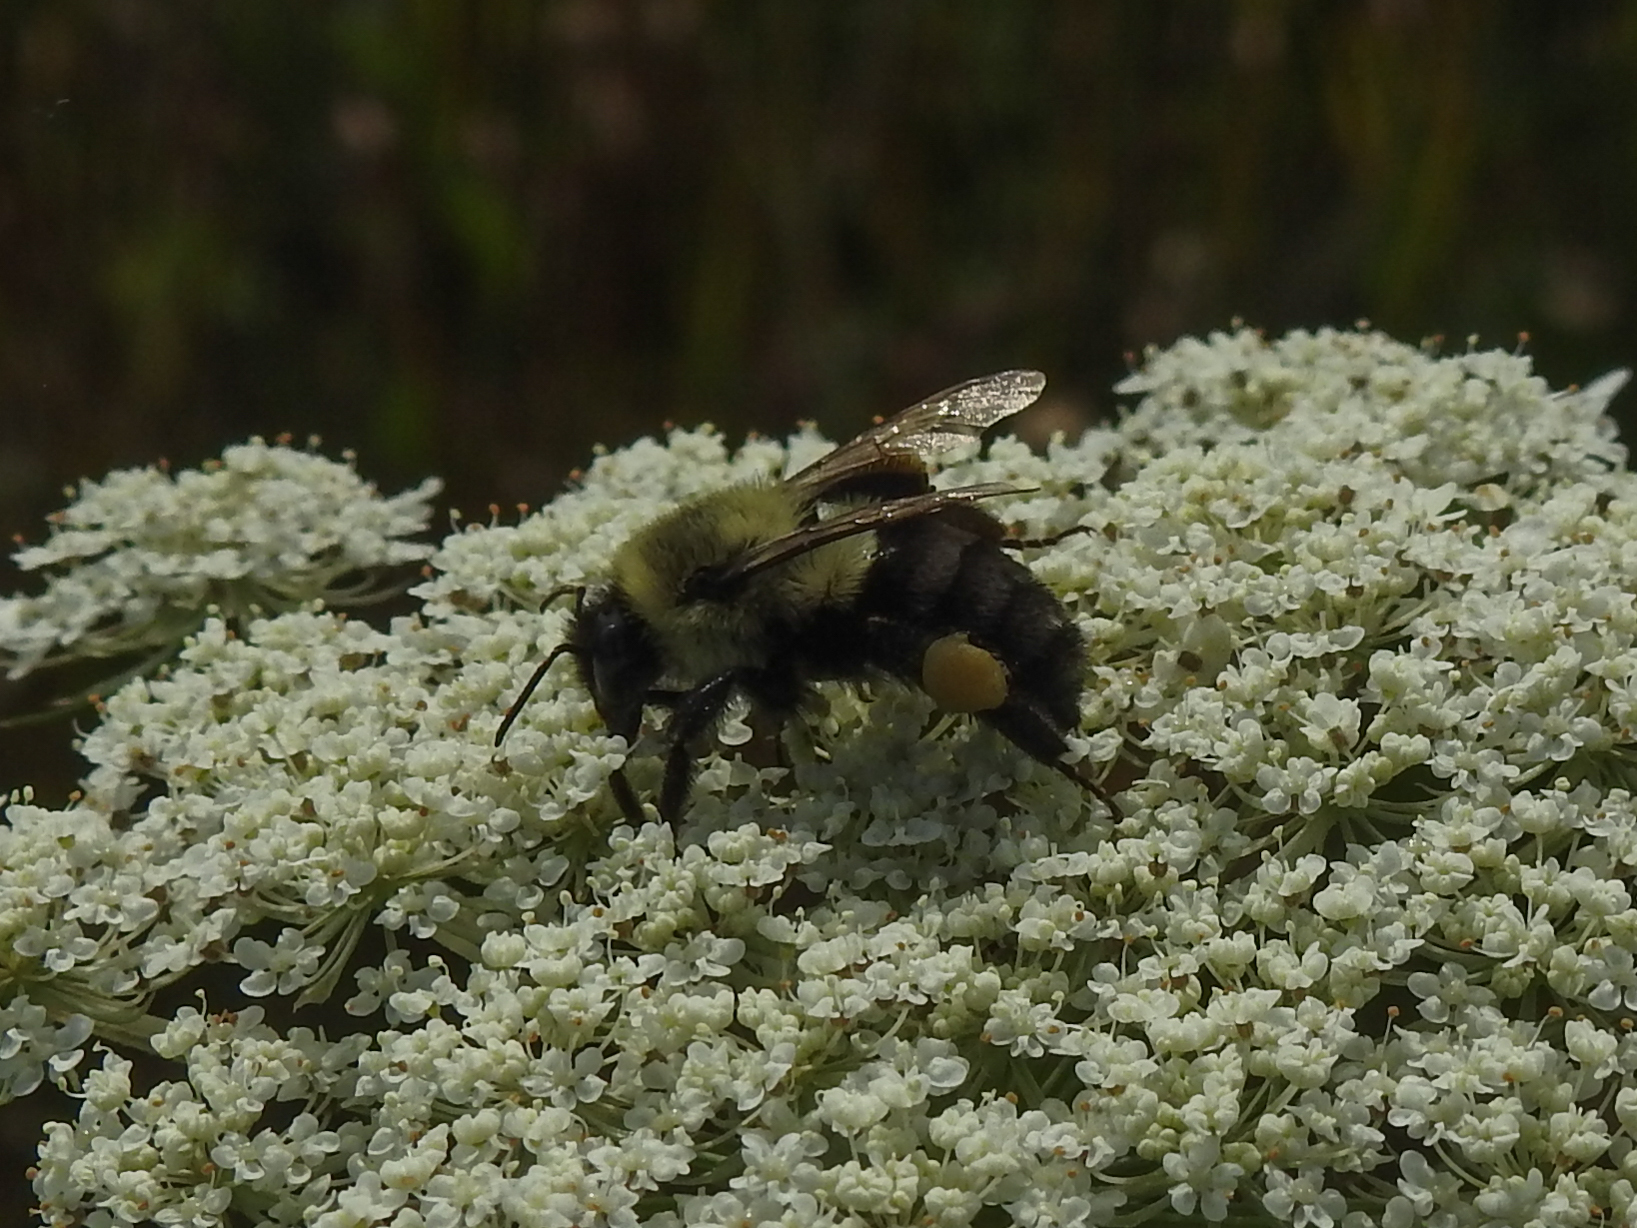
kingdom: Animalia
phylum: Arthropoda
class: Insecta
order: Hymenoptera
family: Apidae
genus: Bombus
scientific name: Bombus impatiens
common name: Common eastern bumble bee
